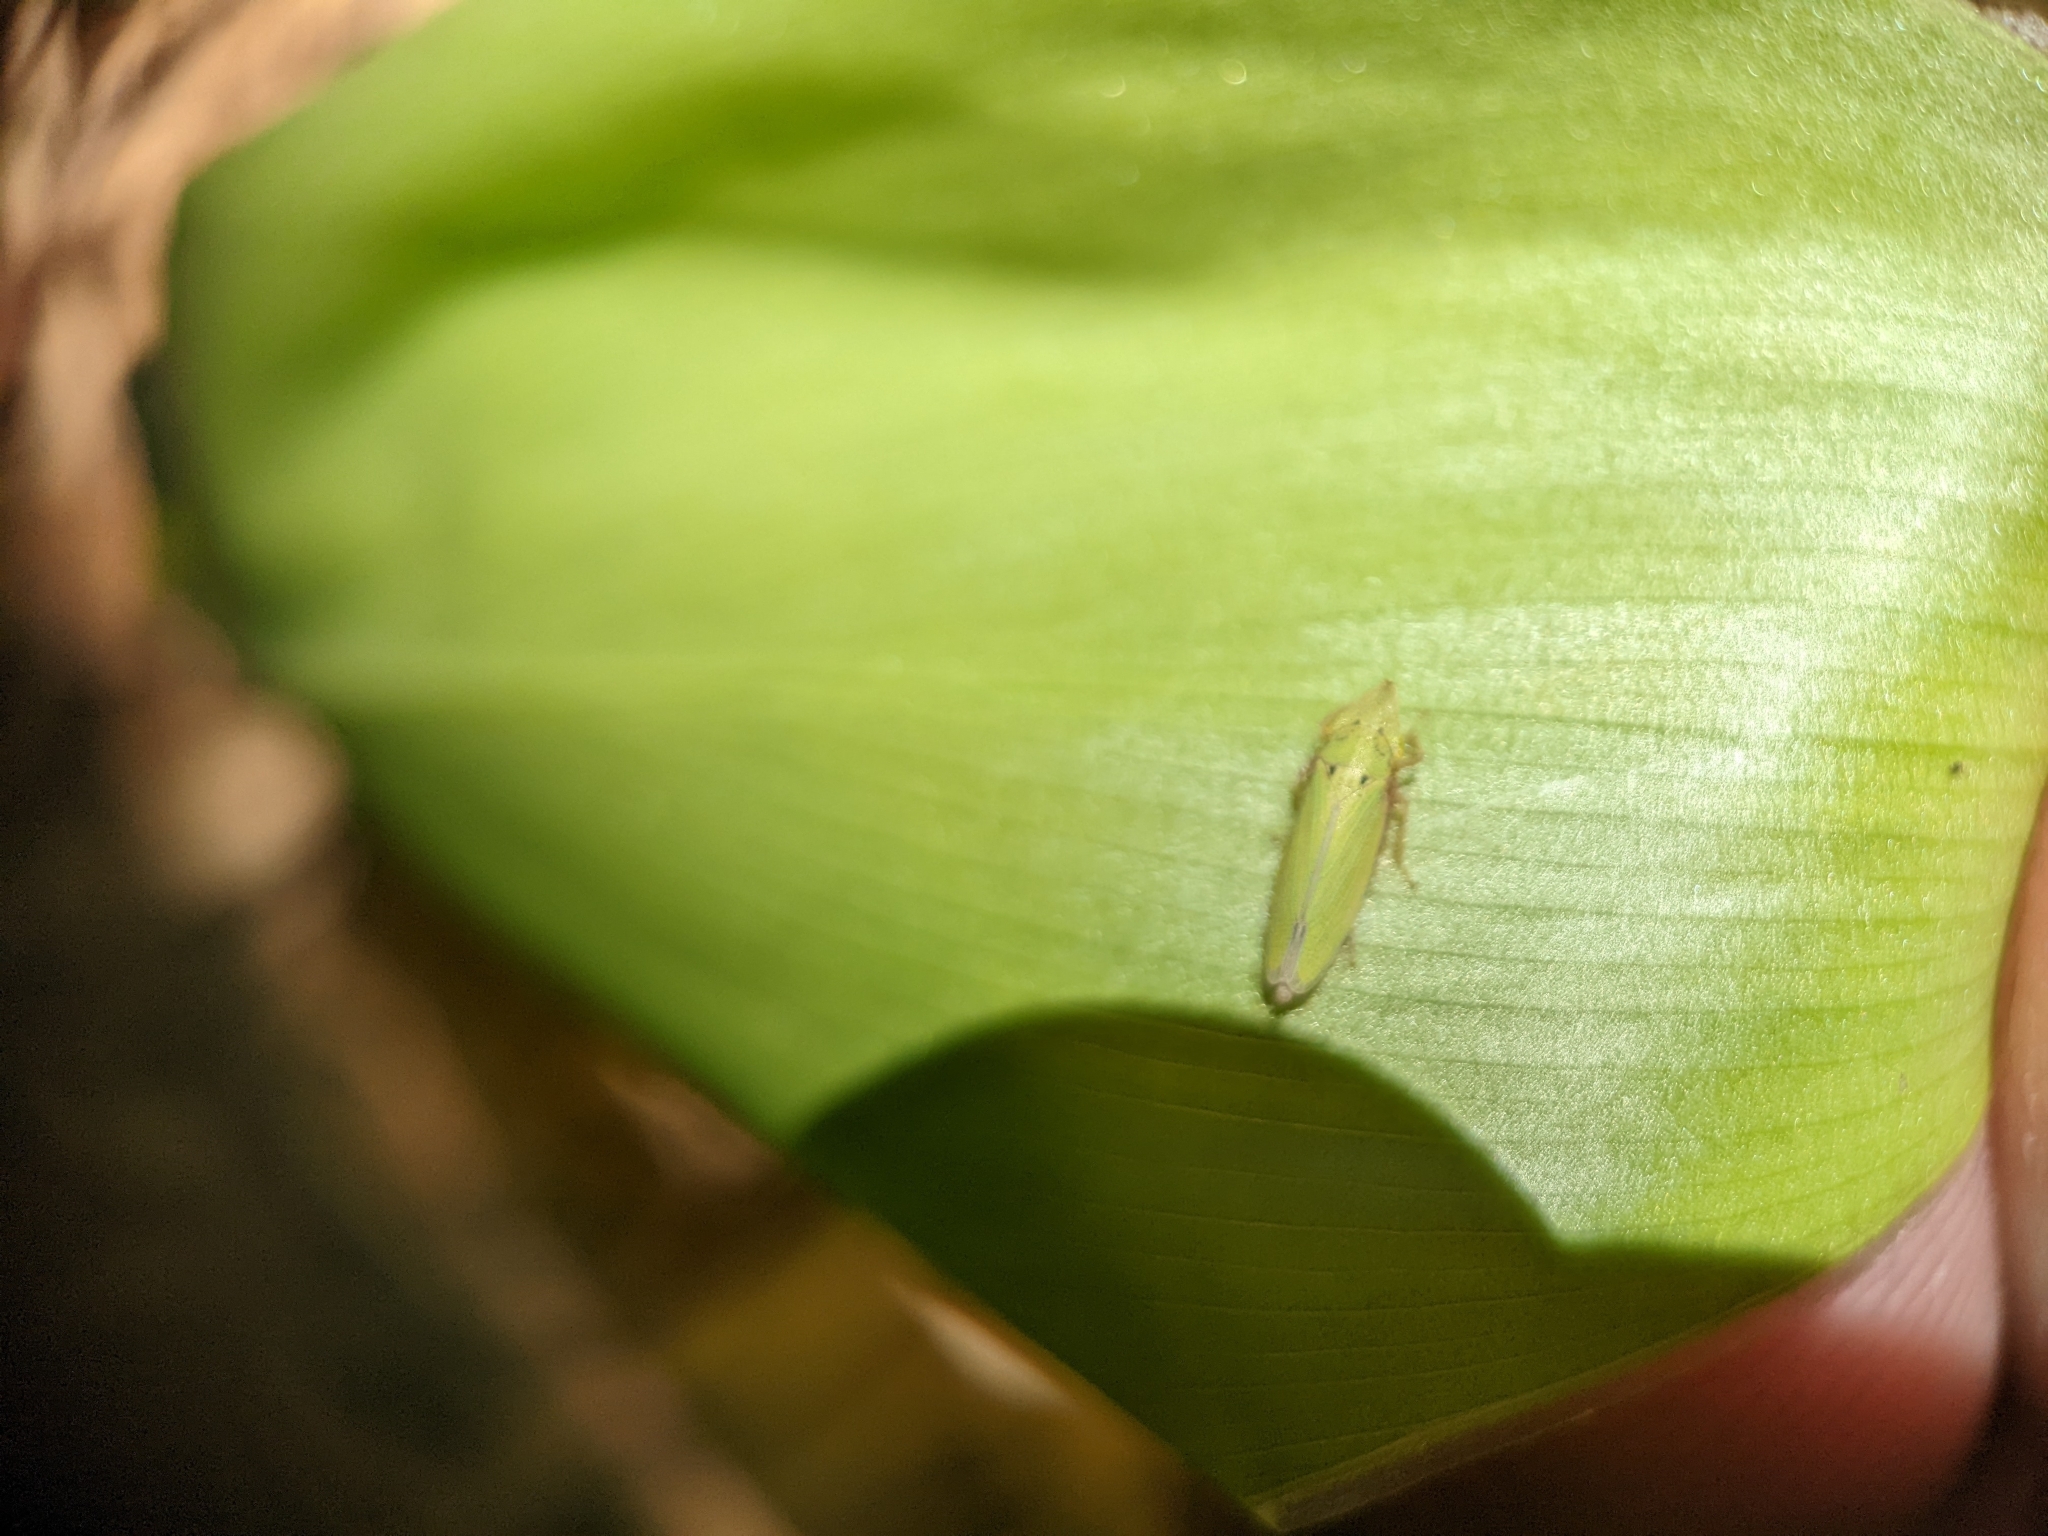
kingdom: Animalia
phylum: Arthropoda
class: Insecta
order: Hemiptera
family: Cicadellidae
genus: Draeculacephala
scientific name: Draeculacephala balli
